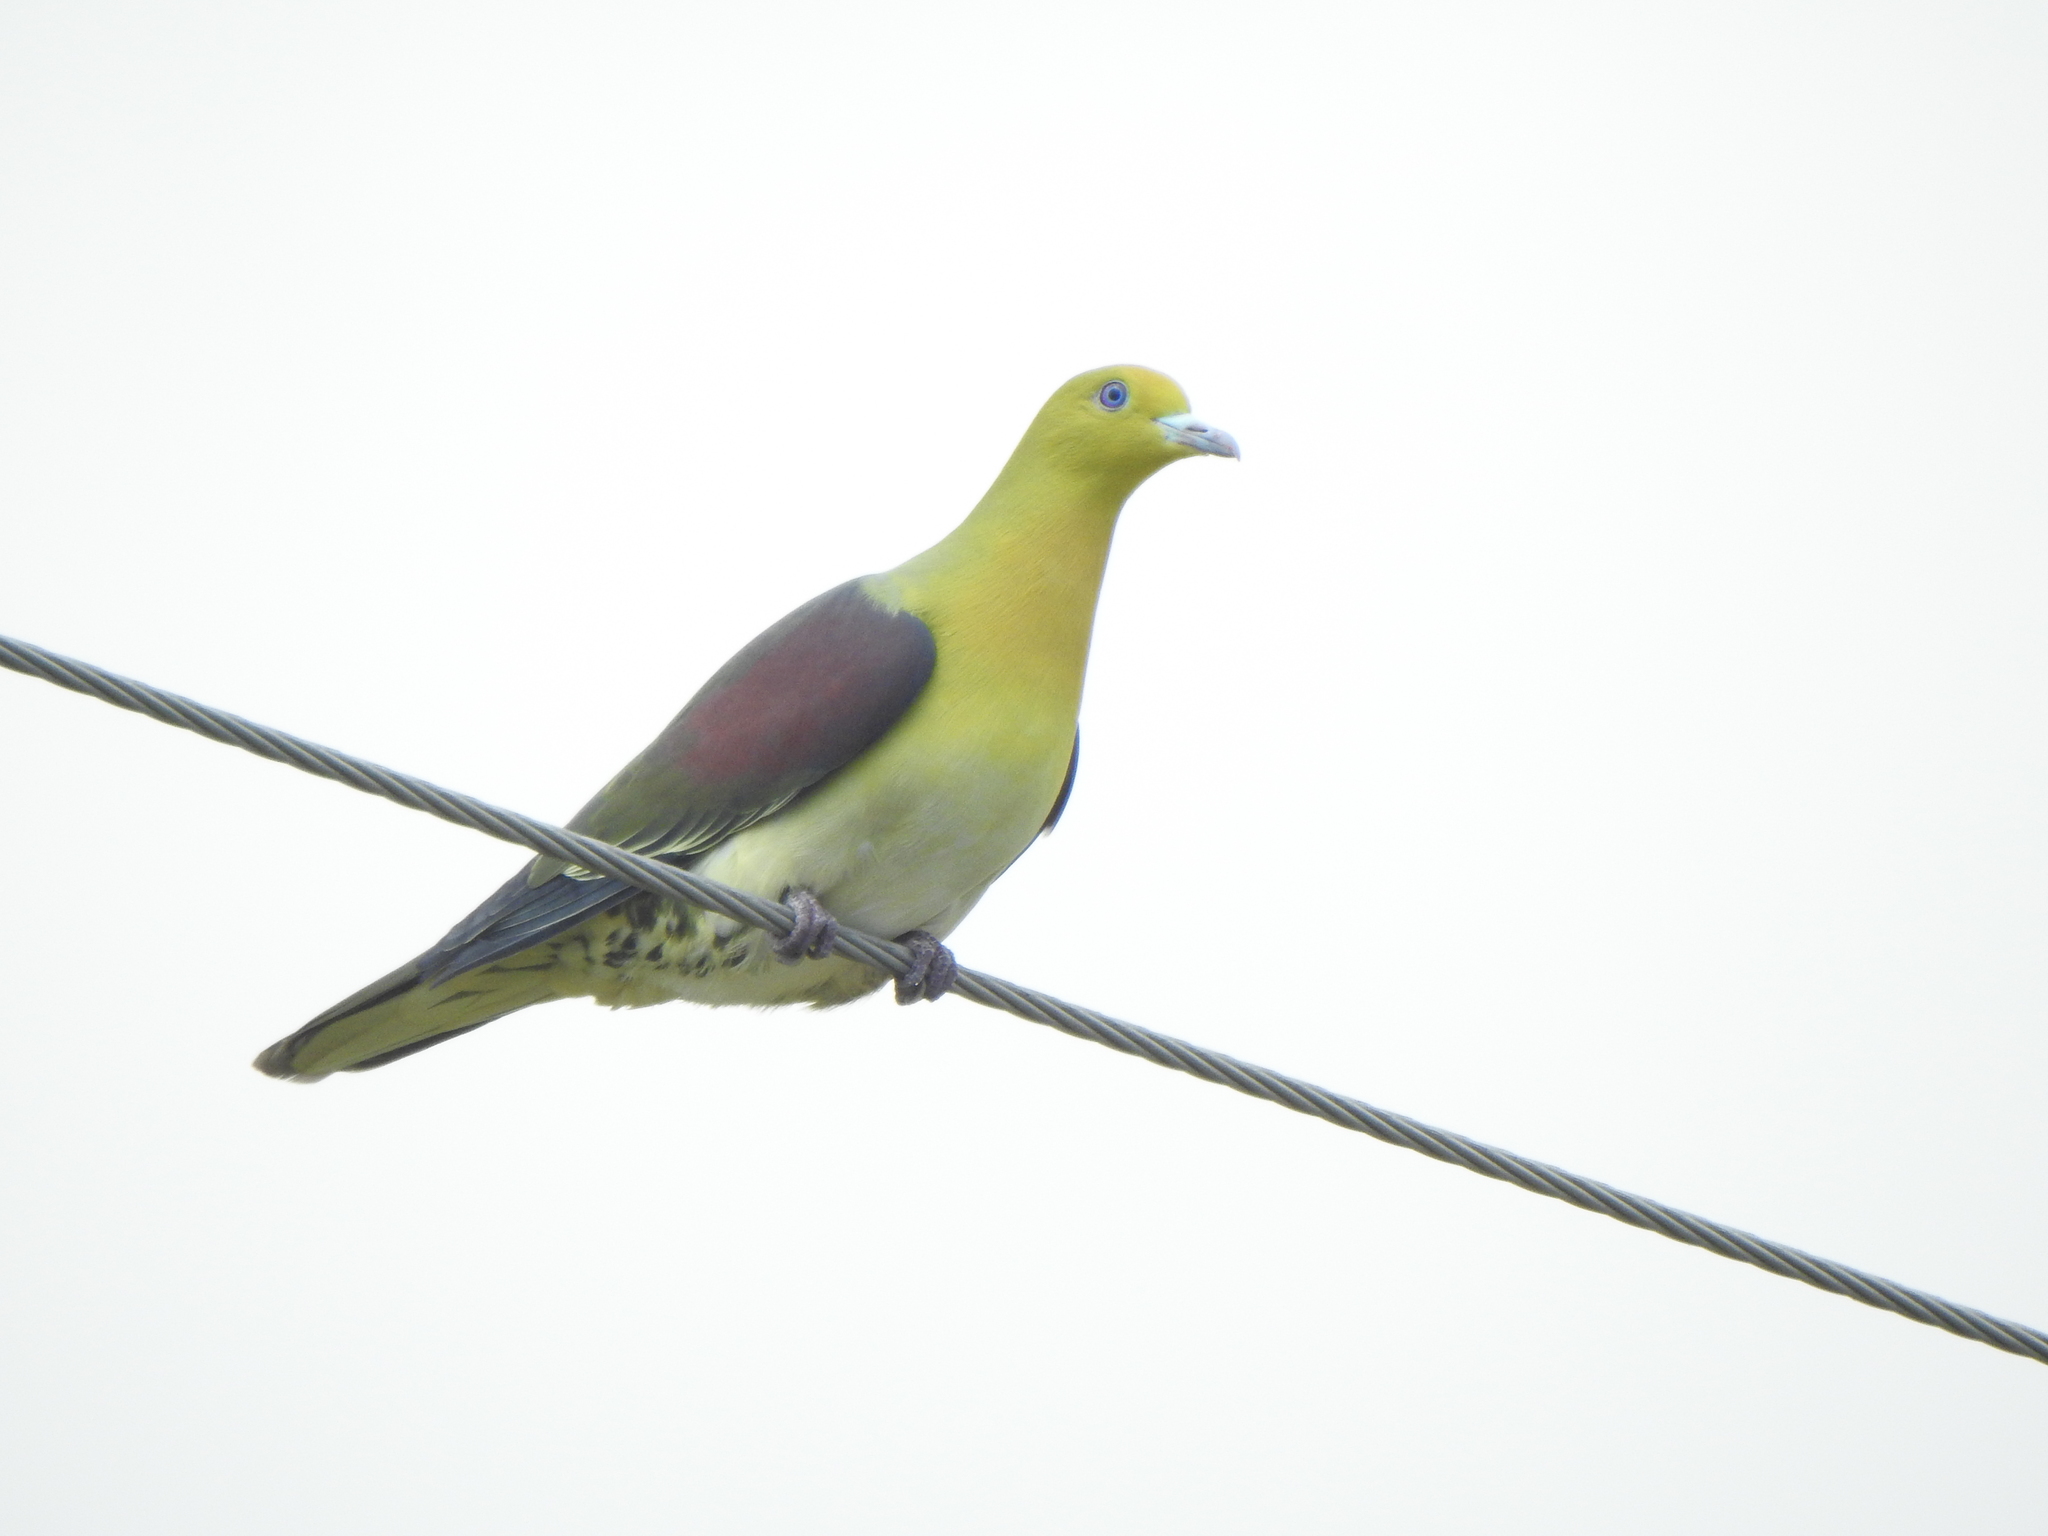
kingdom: Animalia
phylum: Chordata
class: Aves
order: Columbiformes
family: Columbidae
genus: Treron
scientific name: Treron sieboldii
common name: White-bellied green pigeon
